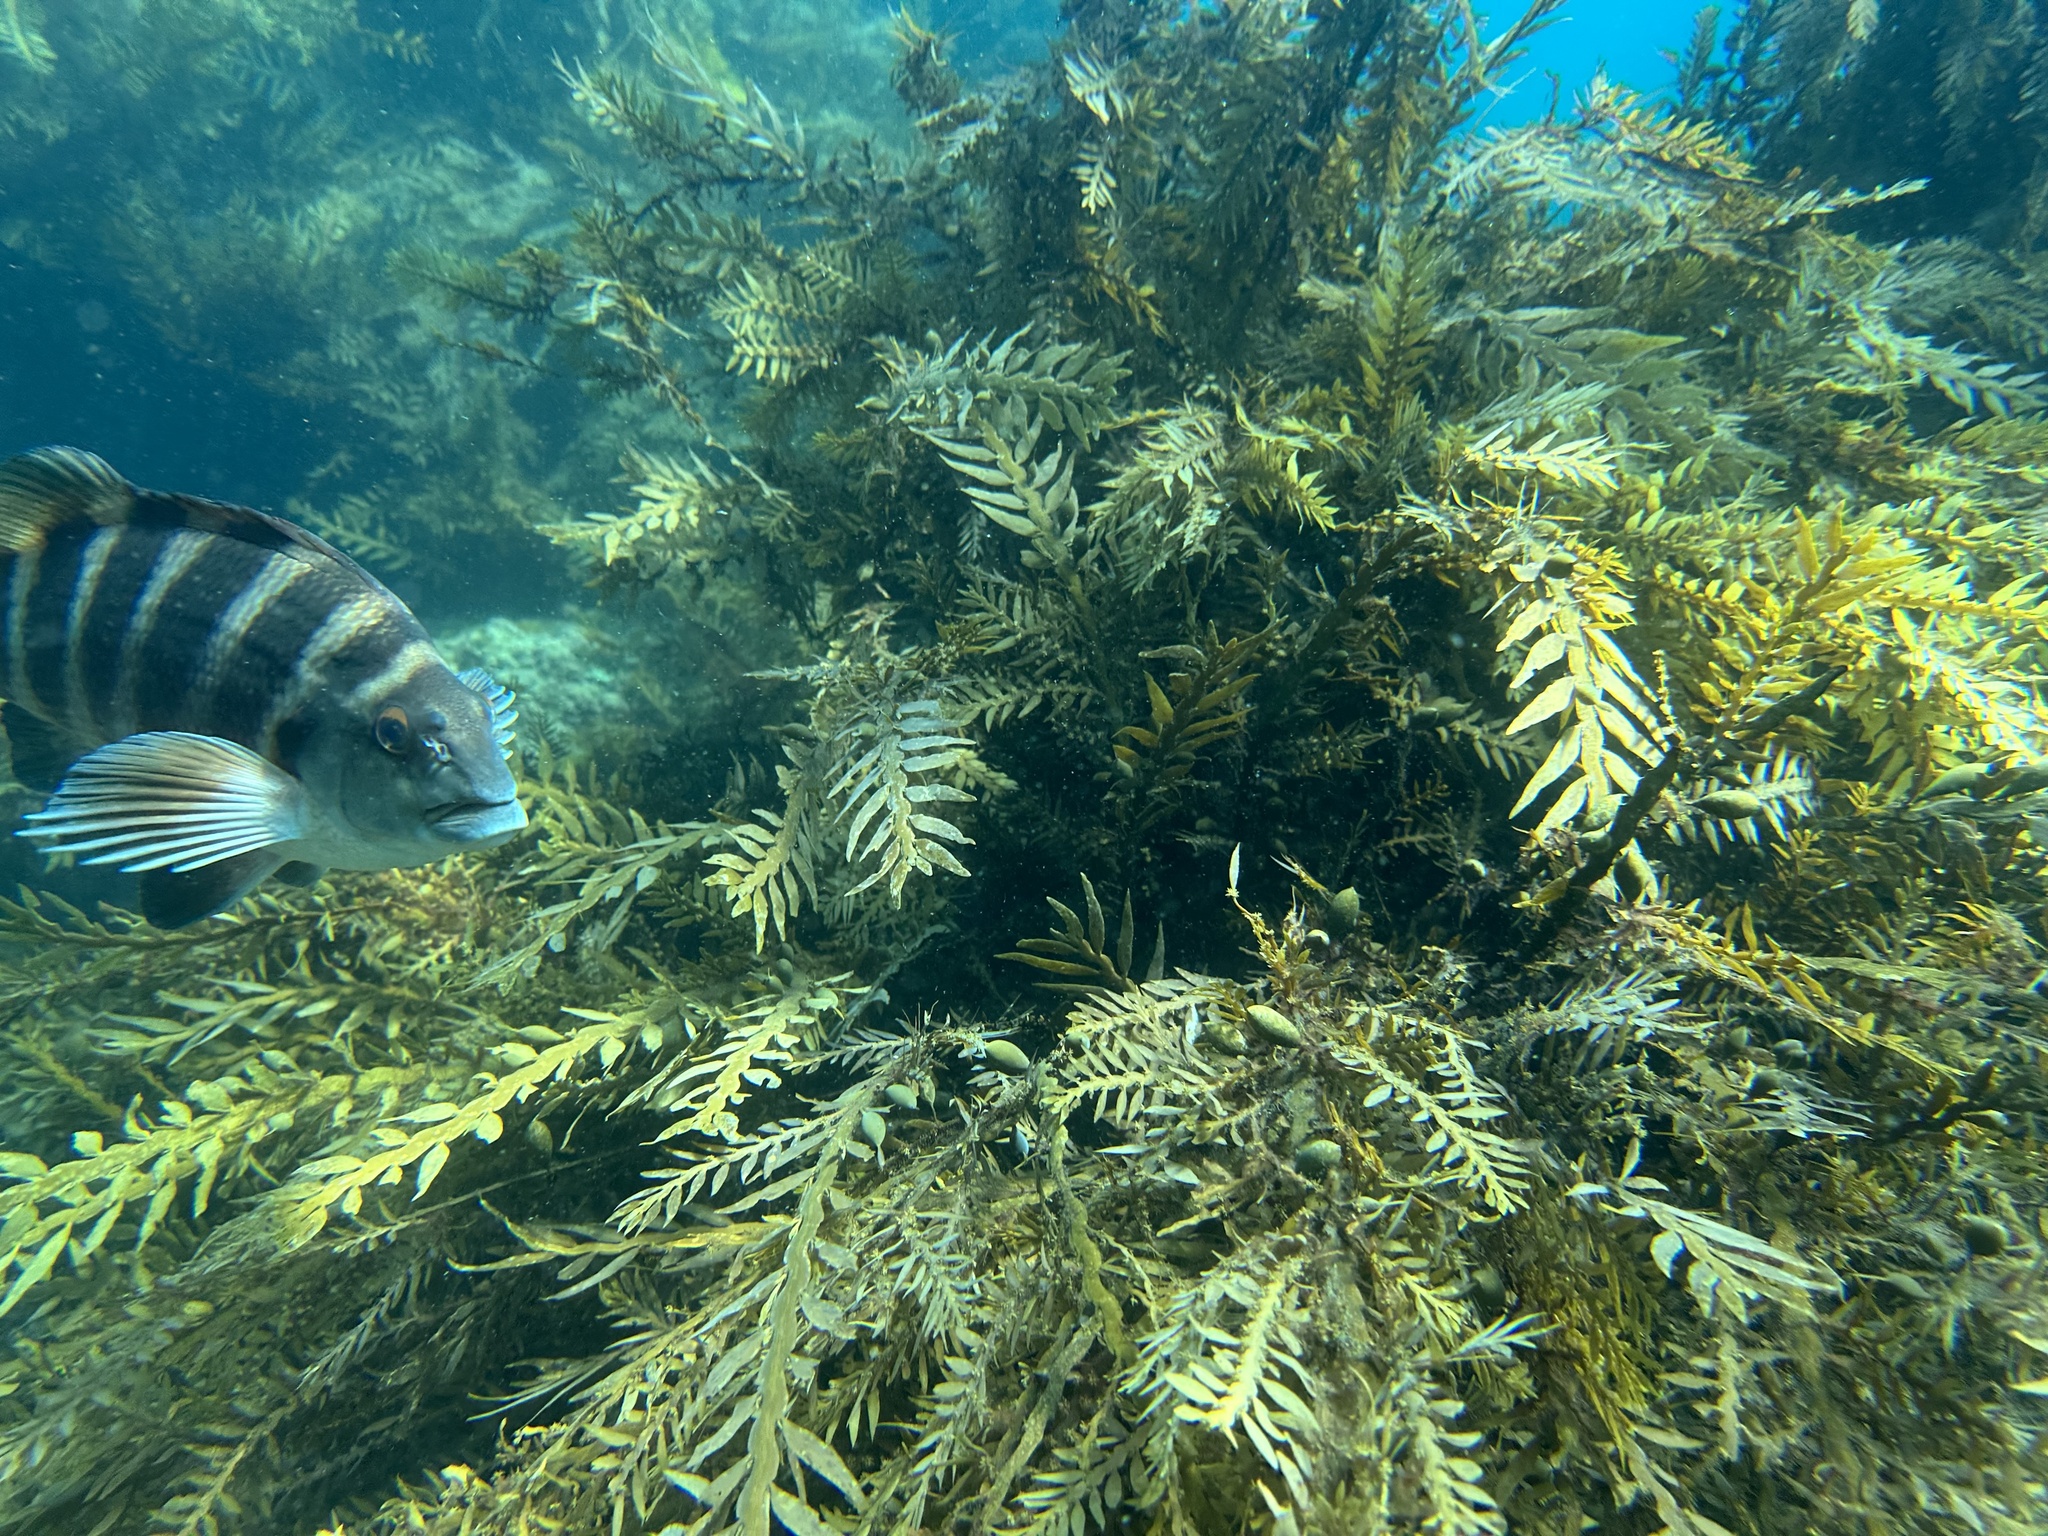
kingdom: Chromista
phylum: Ochrophyta
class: Phaeophyceae
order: Fucales
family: Sargassaceae
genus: Carpophyllum
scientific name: Carpophyllum maschalocarpum
